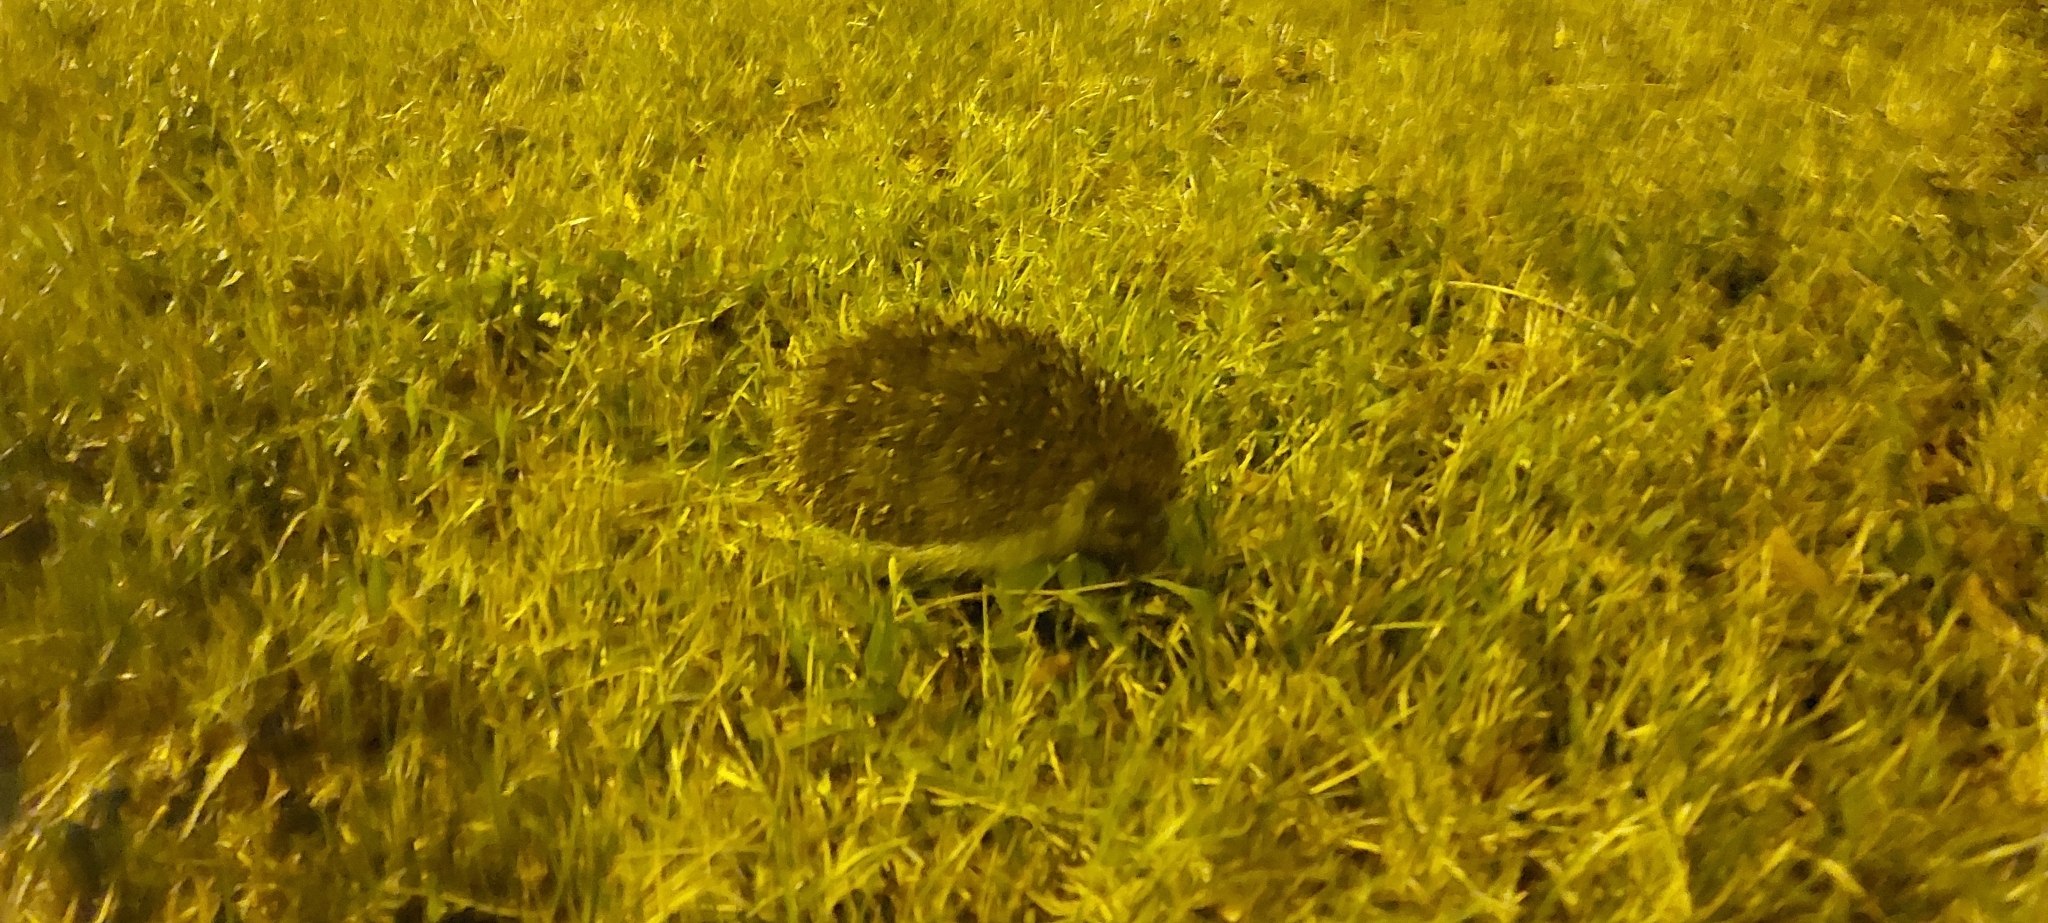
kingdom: Animalia
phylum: Chordata
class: Mammalia
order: Erinaceomorpha
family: Erinaceidae
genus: Erinaceus
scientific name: Erinaceus roumanicus
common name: Northern white-breasted hedgehog
